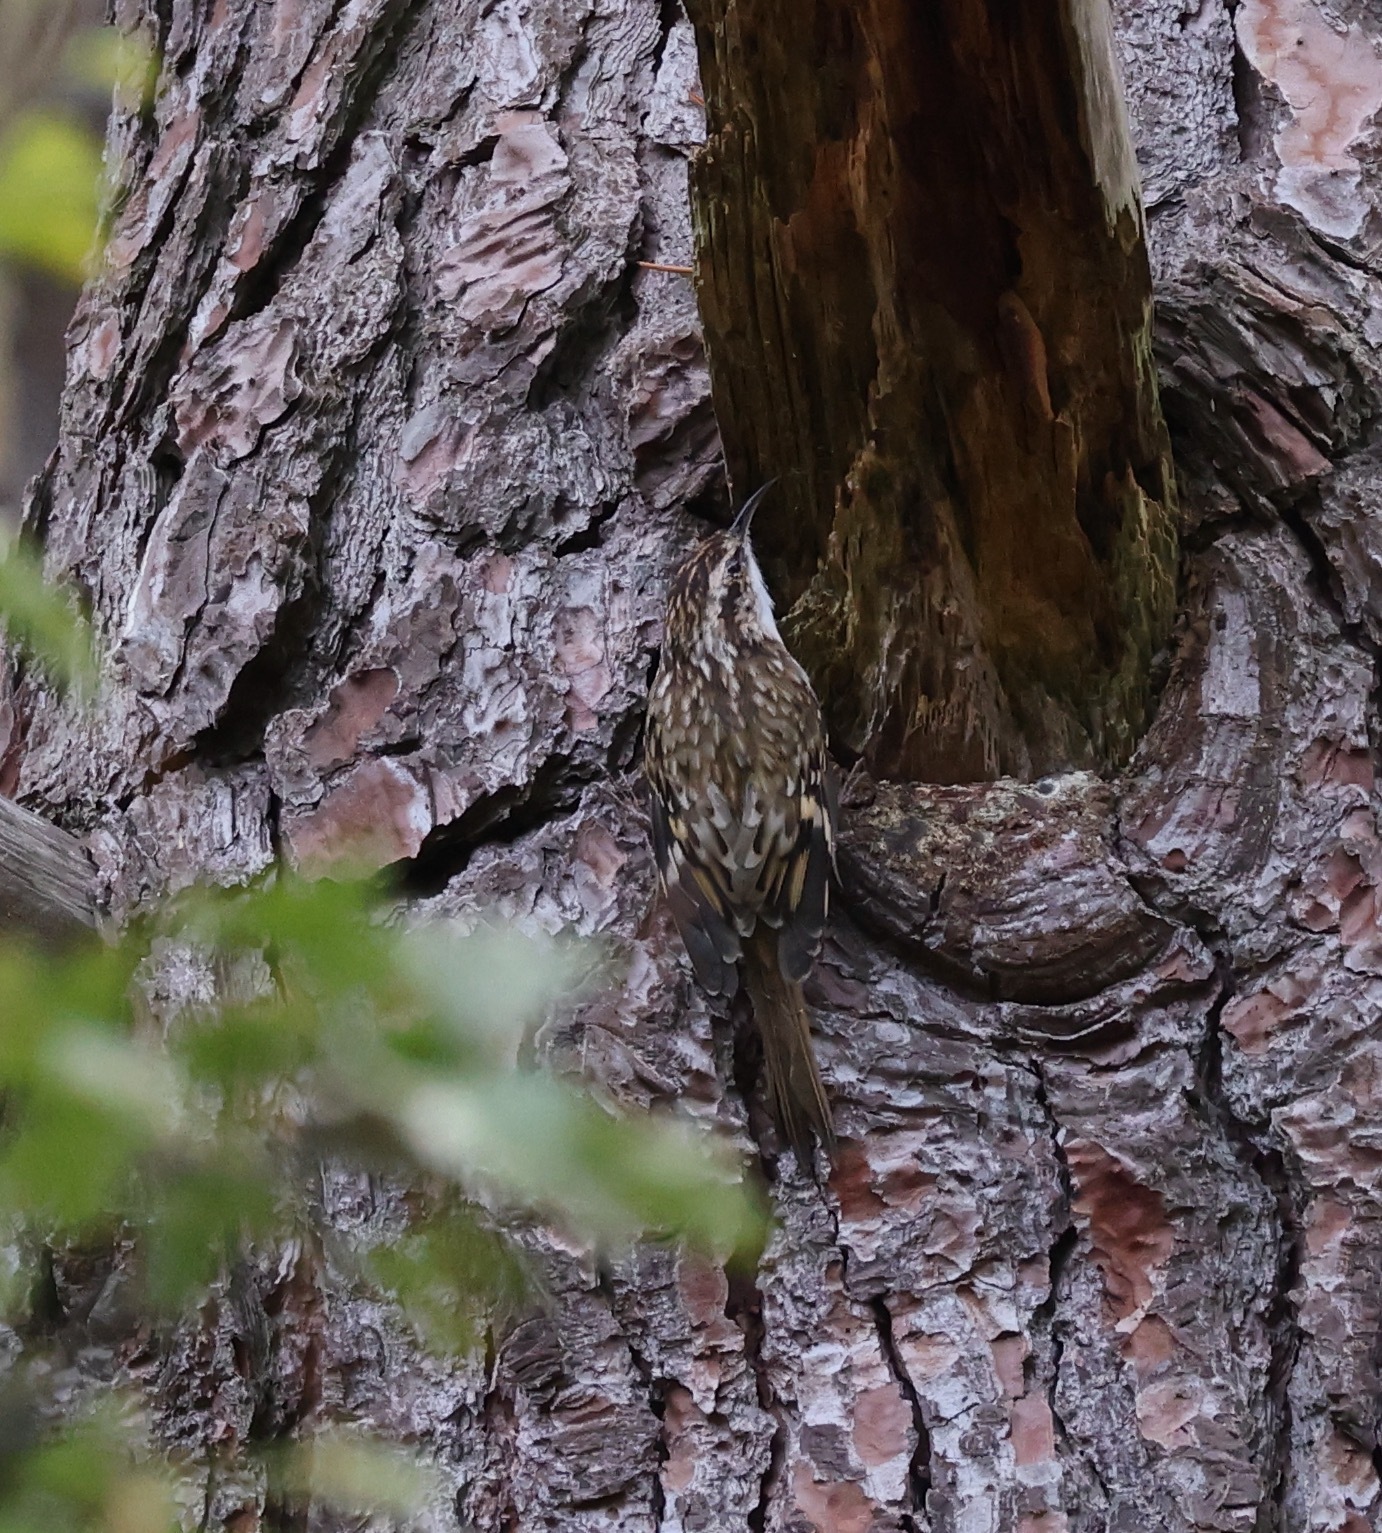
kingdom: Animalia
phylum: Chordata
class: Aves
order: Passeriformes
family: Certhiidae
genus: Certhia
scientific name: Certhia familiaris
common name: Eurasian treecreeper
